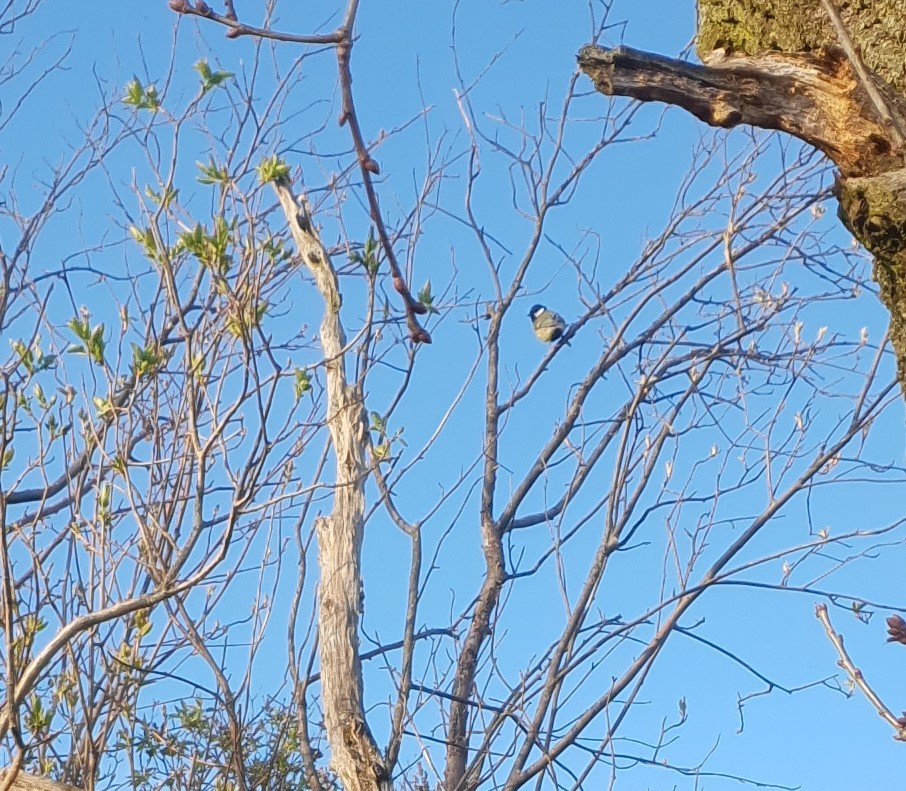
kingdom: Animalia
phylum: Chordata
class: Aves
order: Passeriformes
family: Paridae
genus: Parus
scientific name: Parus major
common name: Great tit
